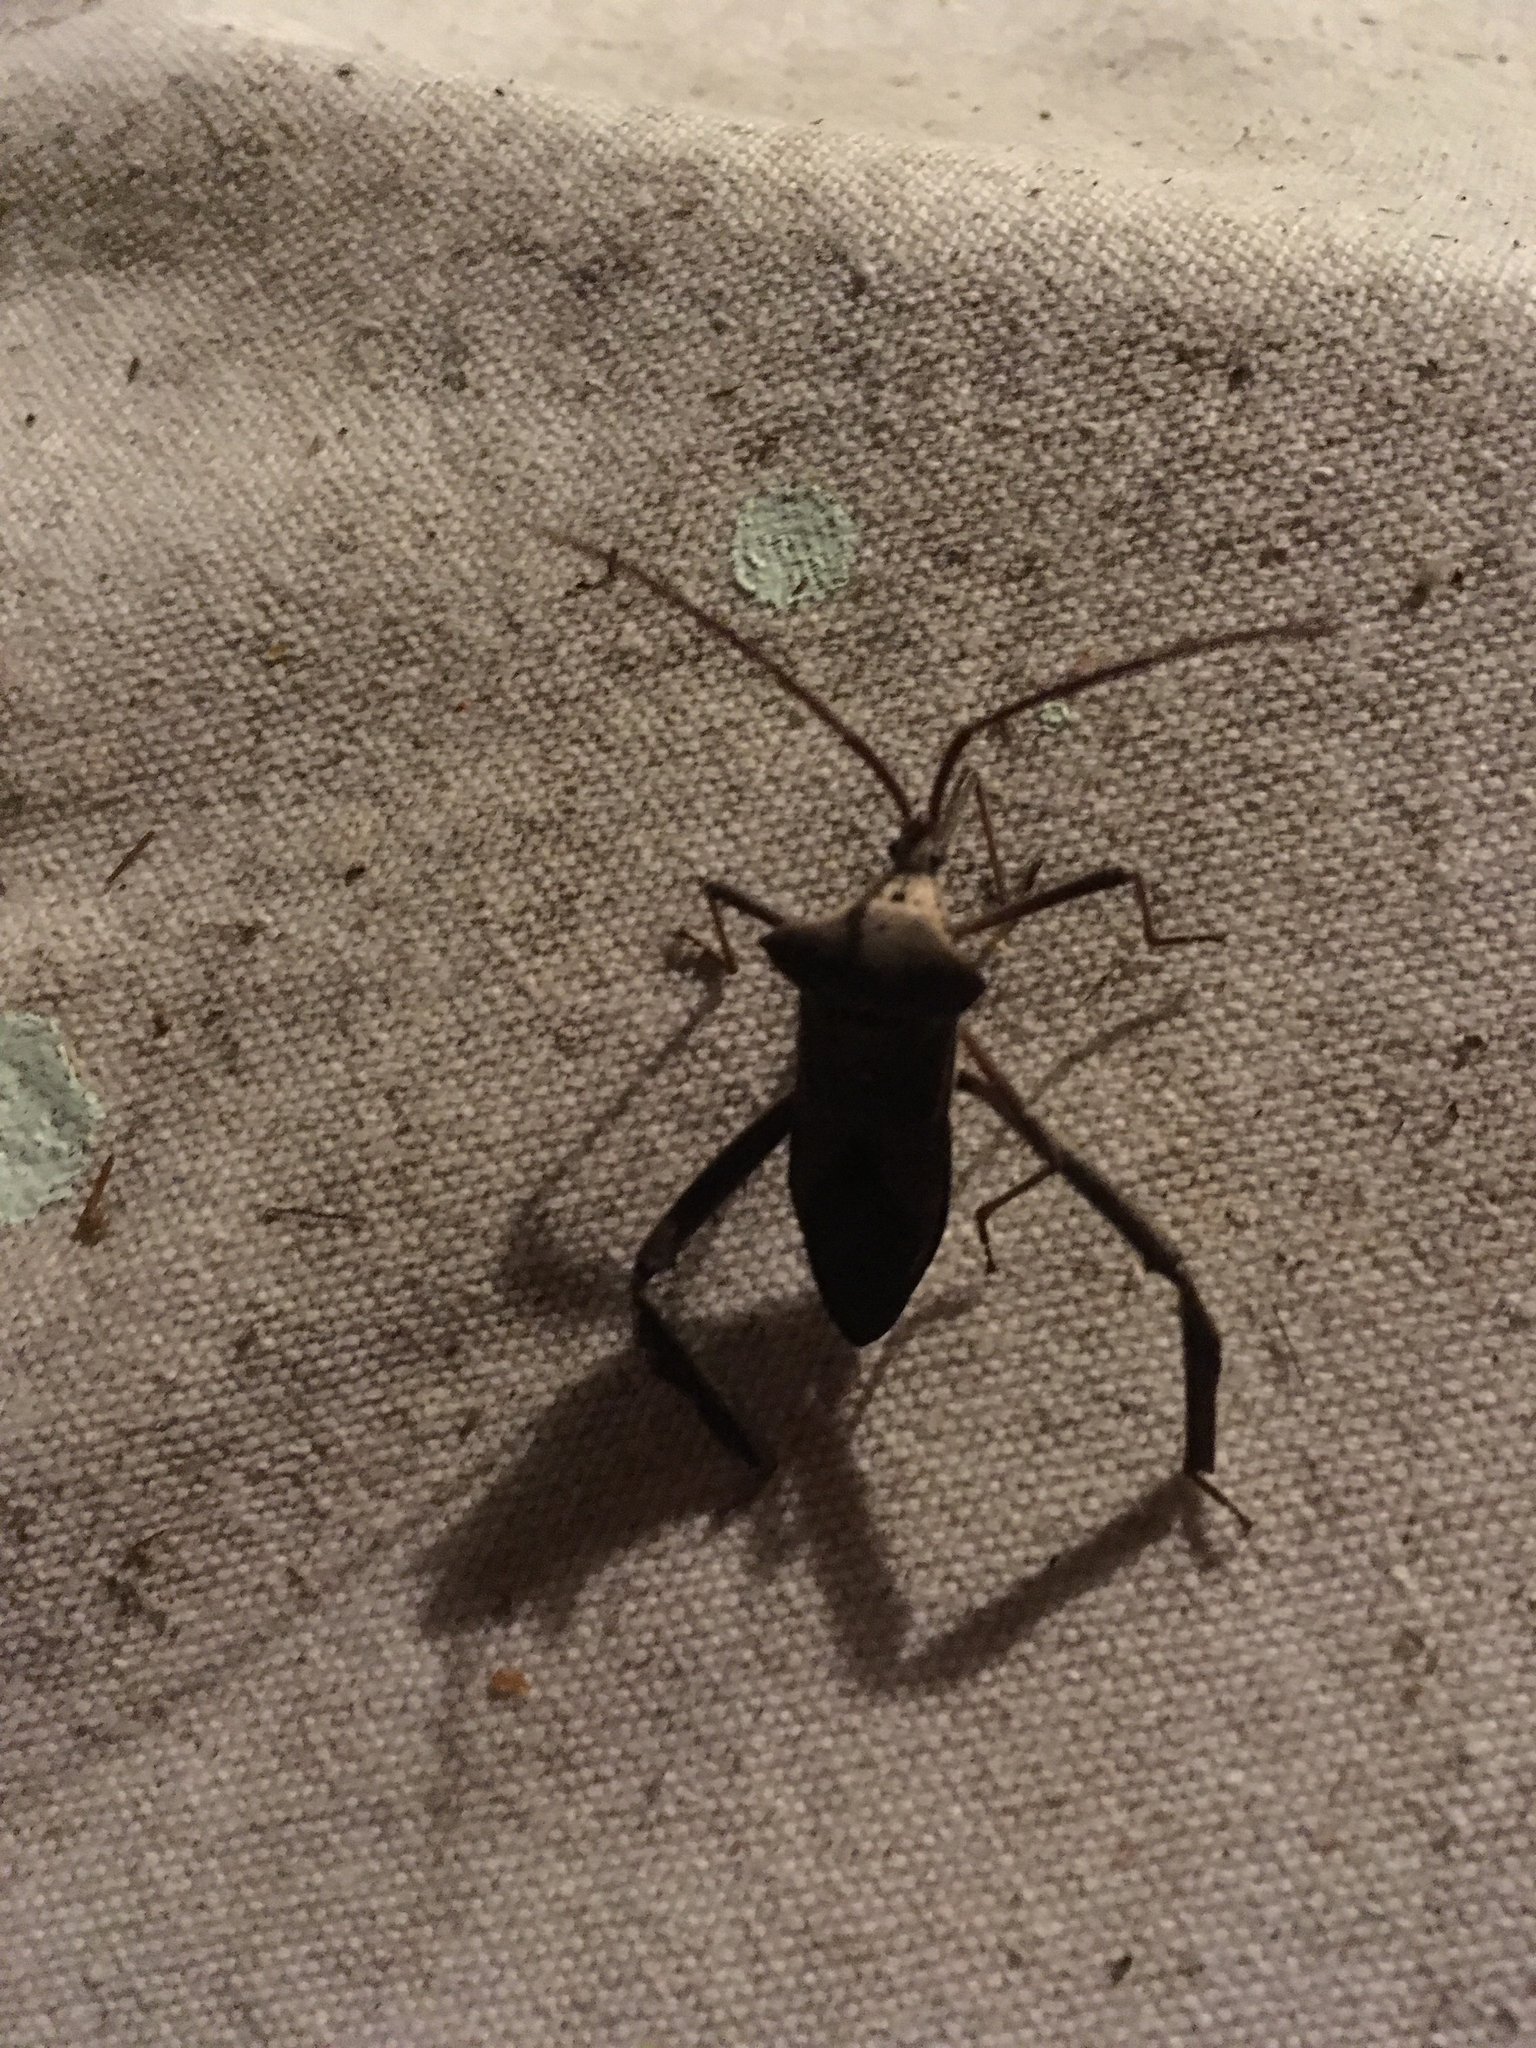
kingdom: Animalia
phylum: Arthropoda
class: Insecta
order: Hemiptera
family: Coreidae
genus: Acanthocephala
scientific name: Acanthocephala declivis
